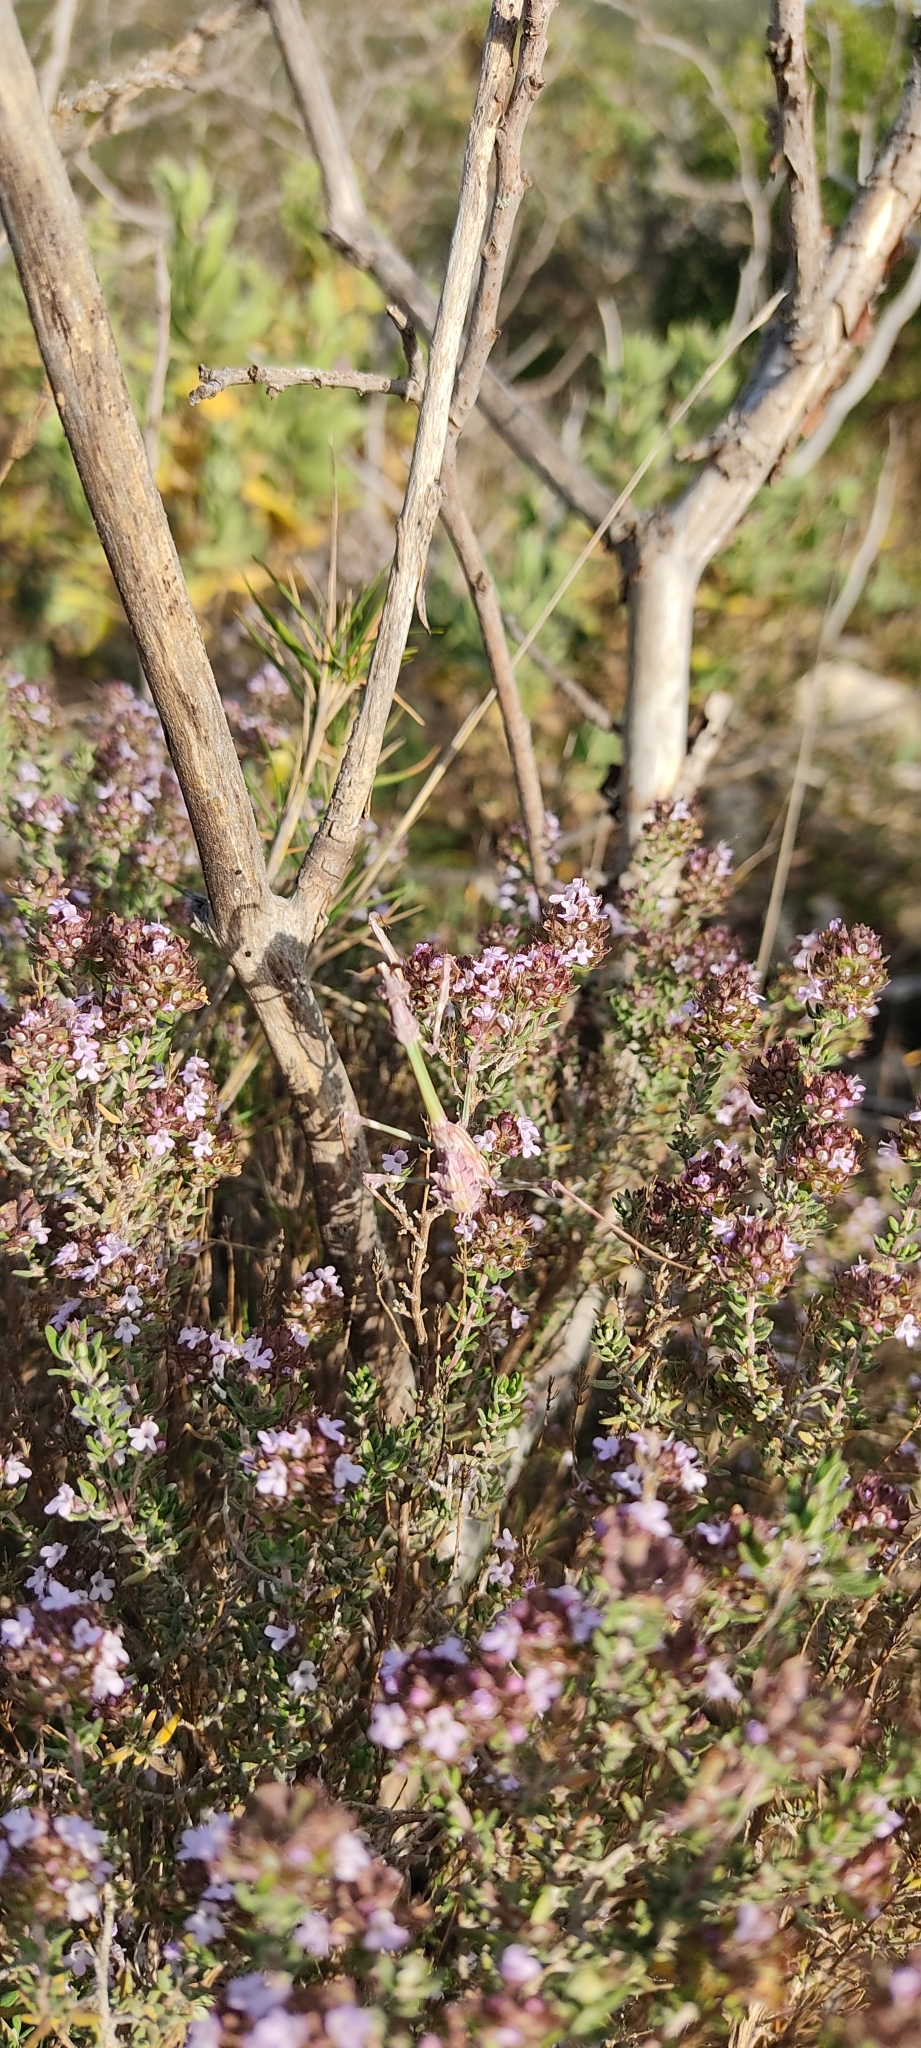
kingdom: Plantae
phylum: Tracheophyta
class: Magnoliopsida
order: Lamiales
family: Lamiaceae
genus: Thymus
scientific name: Thymus vulgaris
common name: Garden thyme
